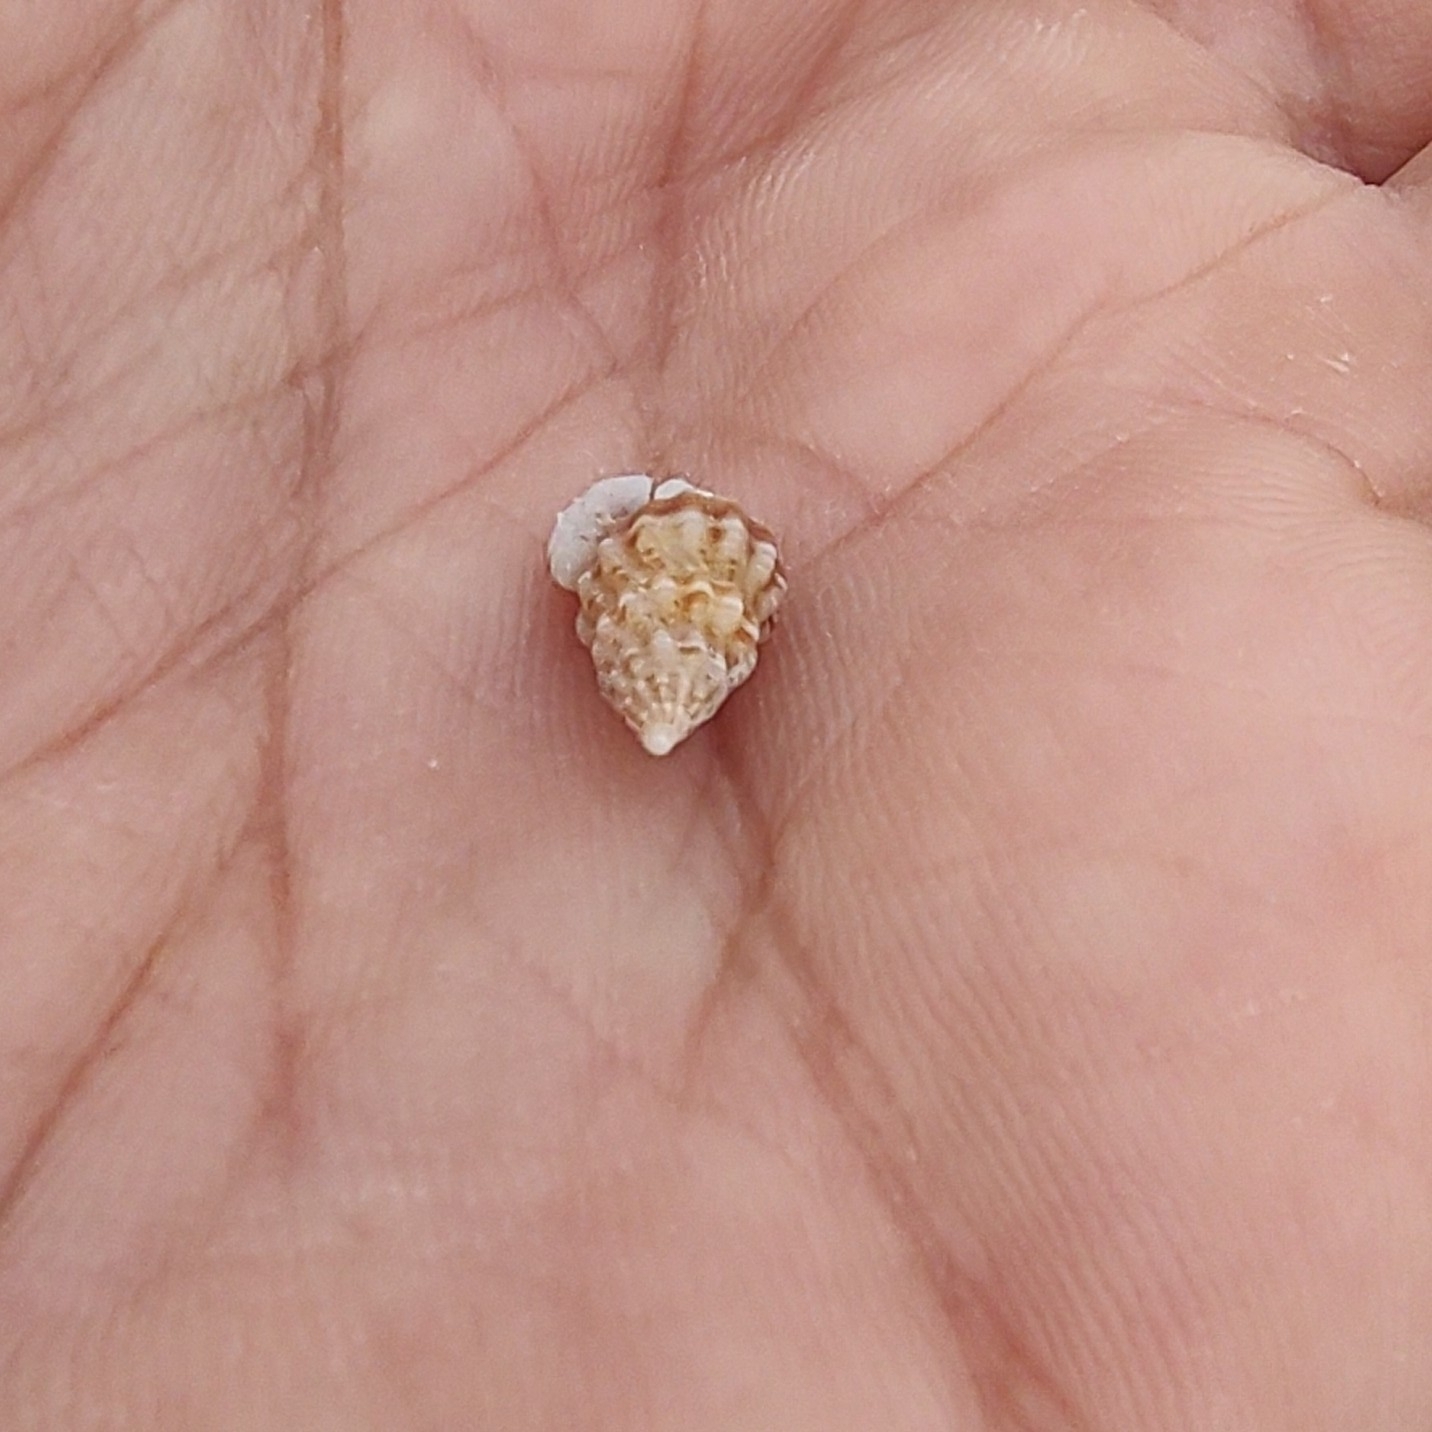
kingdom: Animalia
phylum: Mollusca
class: Gastropoda
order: Neogastropoda
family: Nassariidae
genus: Tritia
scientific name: Tritia incrassata
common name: Thick-lipped dog whelk
